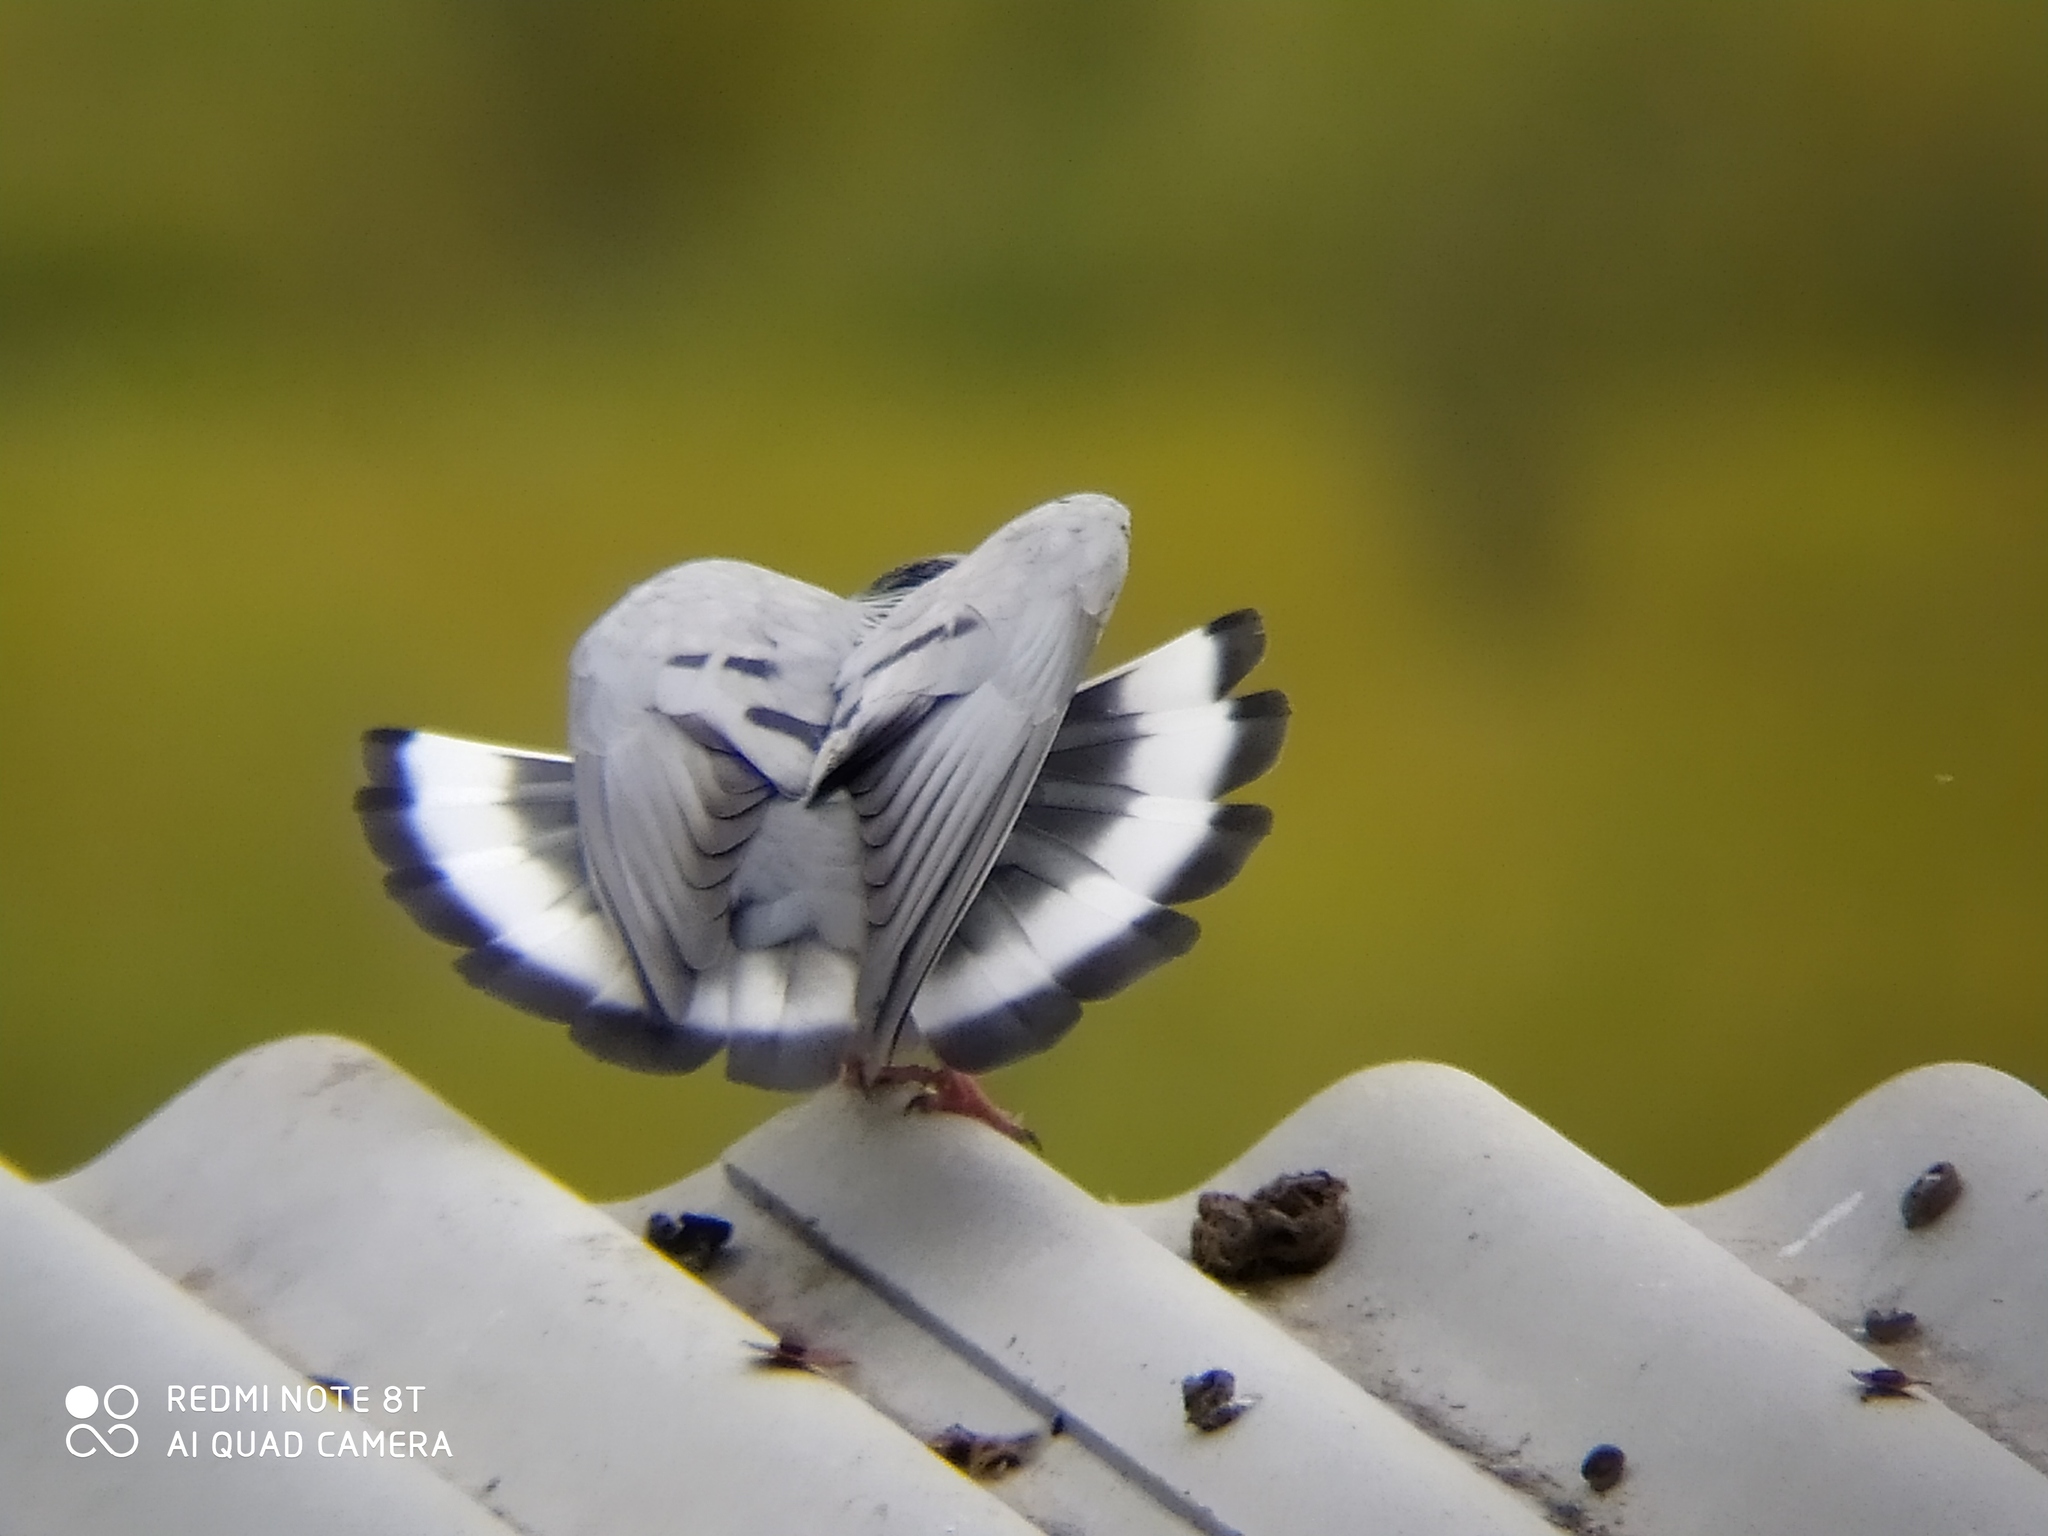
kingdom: Animalia
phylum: Chordata
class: Aves
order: Columbiformes
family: Columbidae
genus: Columba
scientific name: Columba rupestris
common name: Hill pigeon
